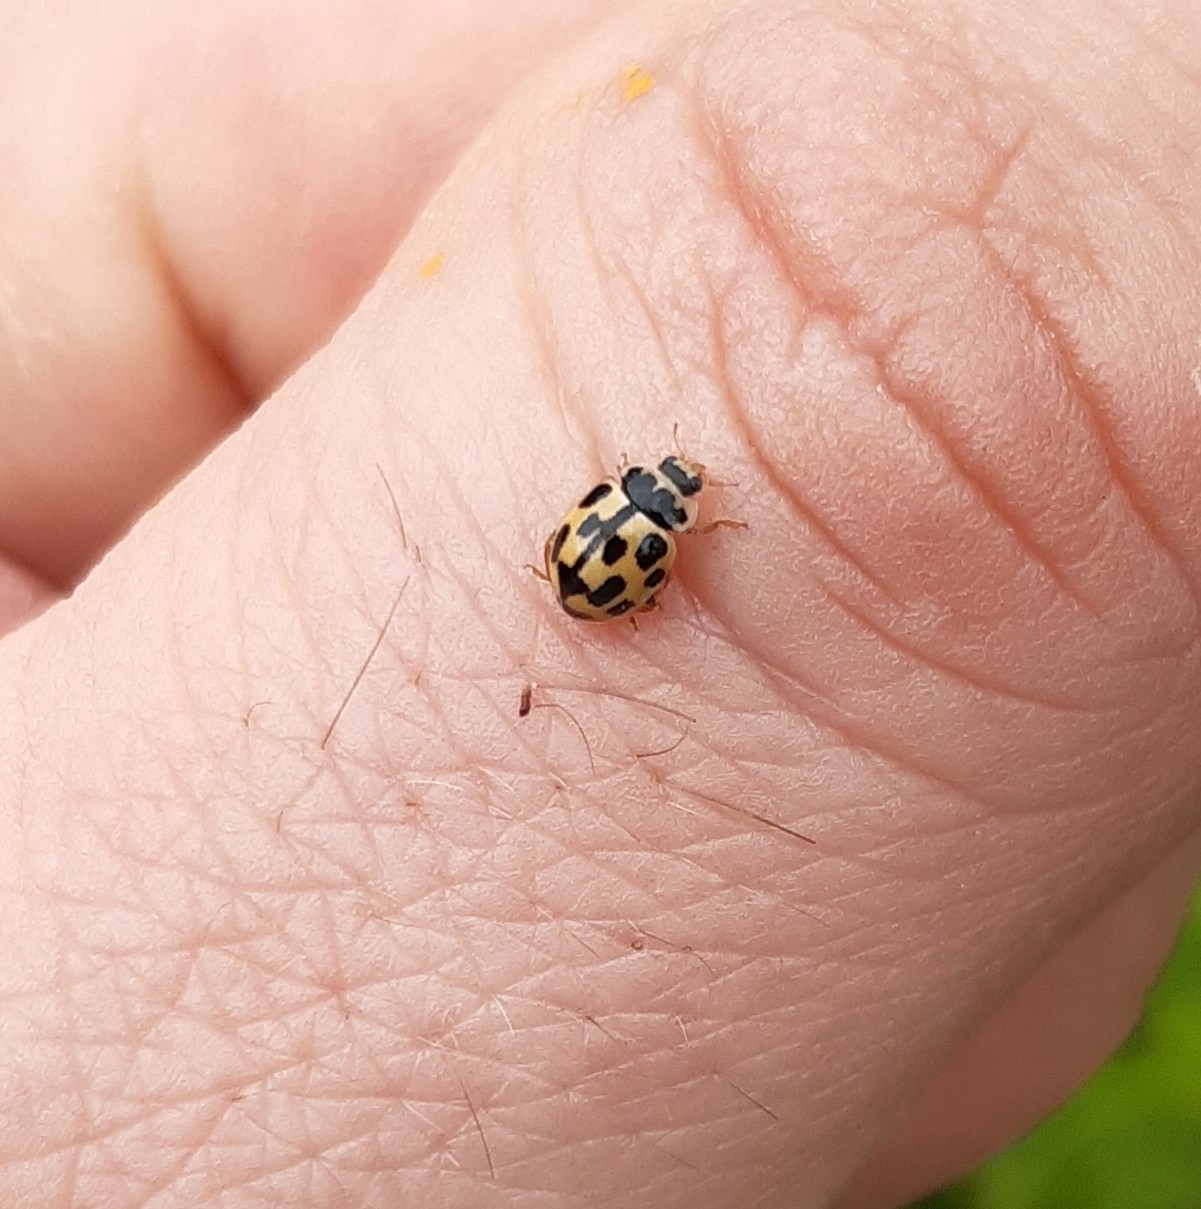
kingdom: Animalia
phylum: Arthropoda
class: Insecta
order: Coleoptera
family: Coccinellidae
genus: Propylaea
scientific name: Propylaea quatuordecimpunctata
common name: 14-spotted ladybird beetle
